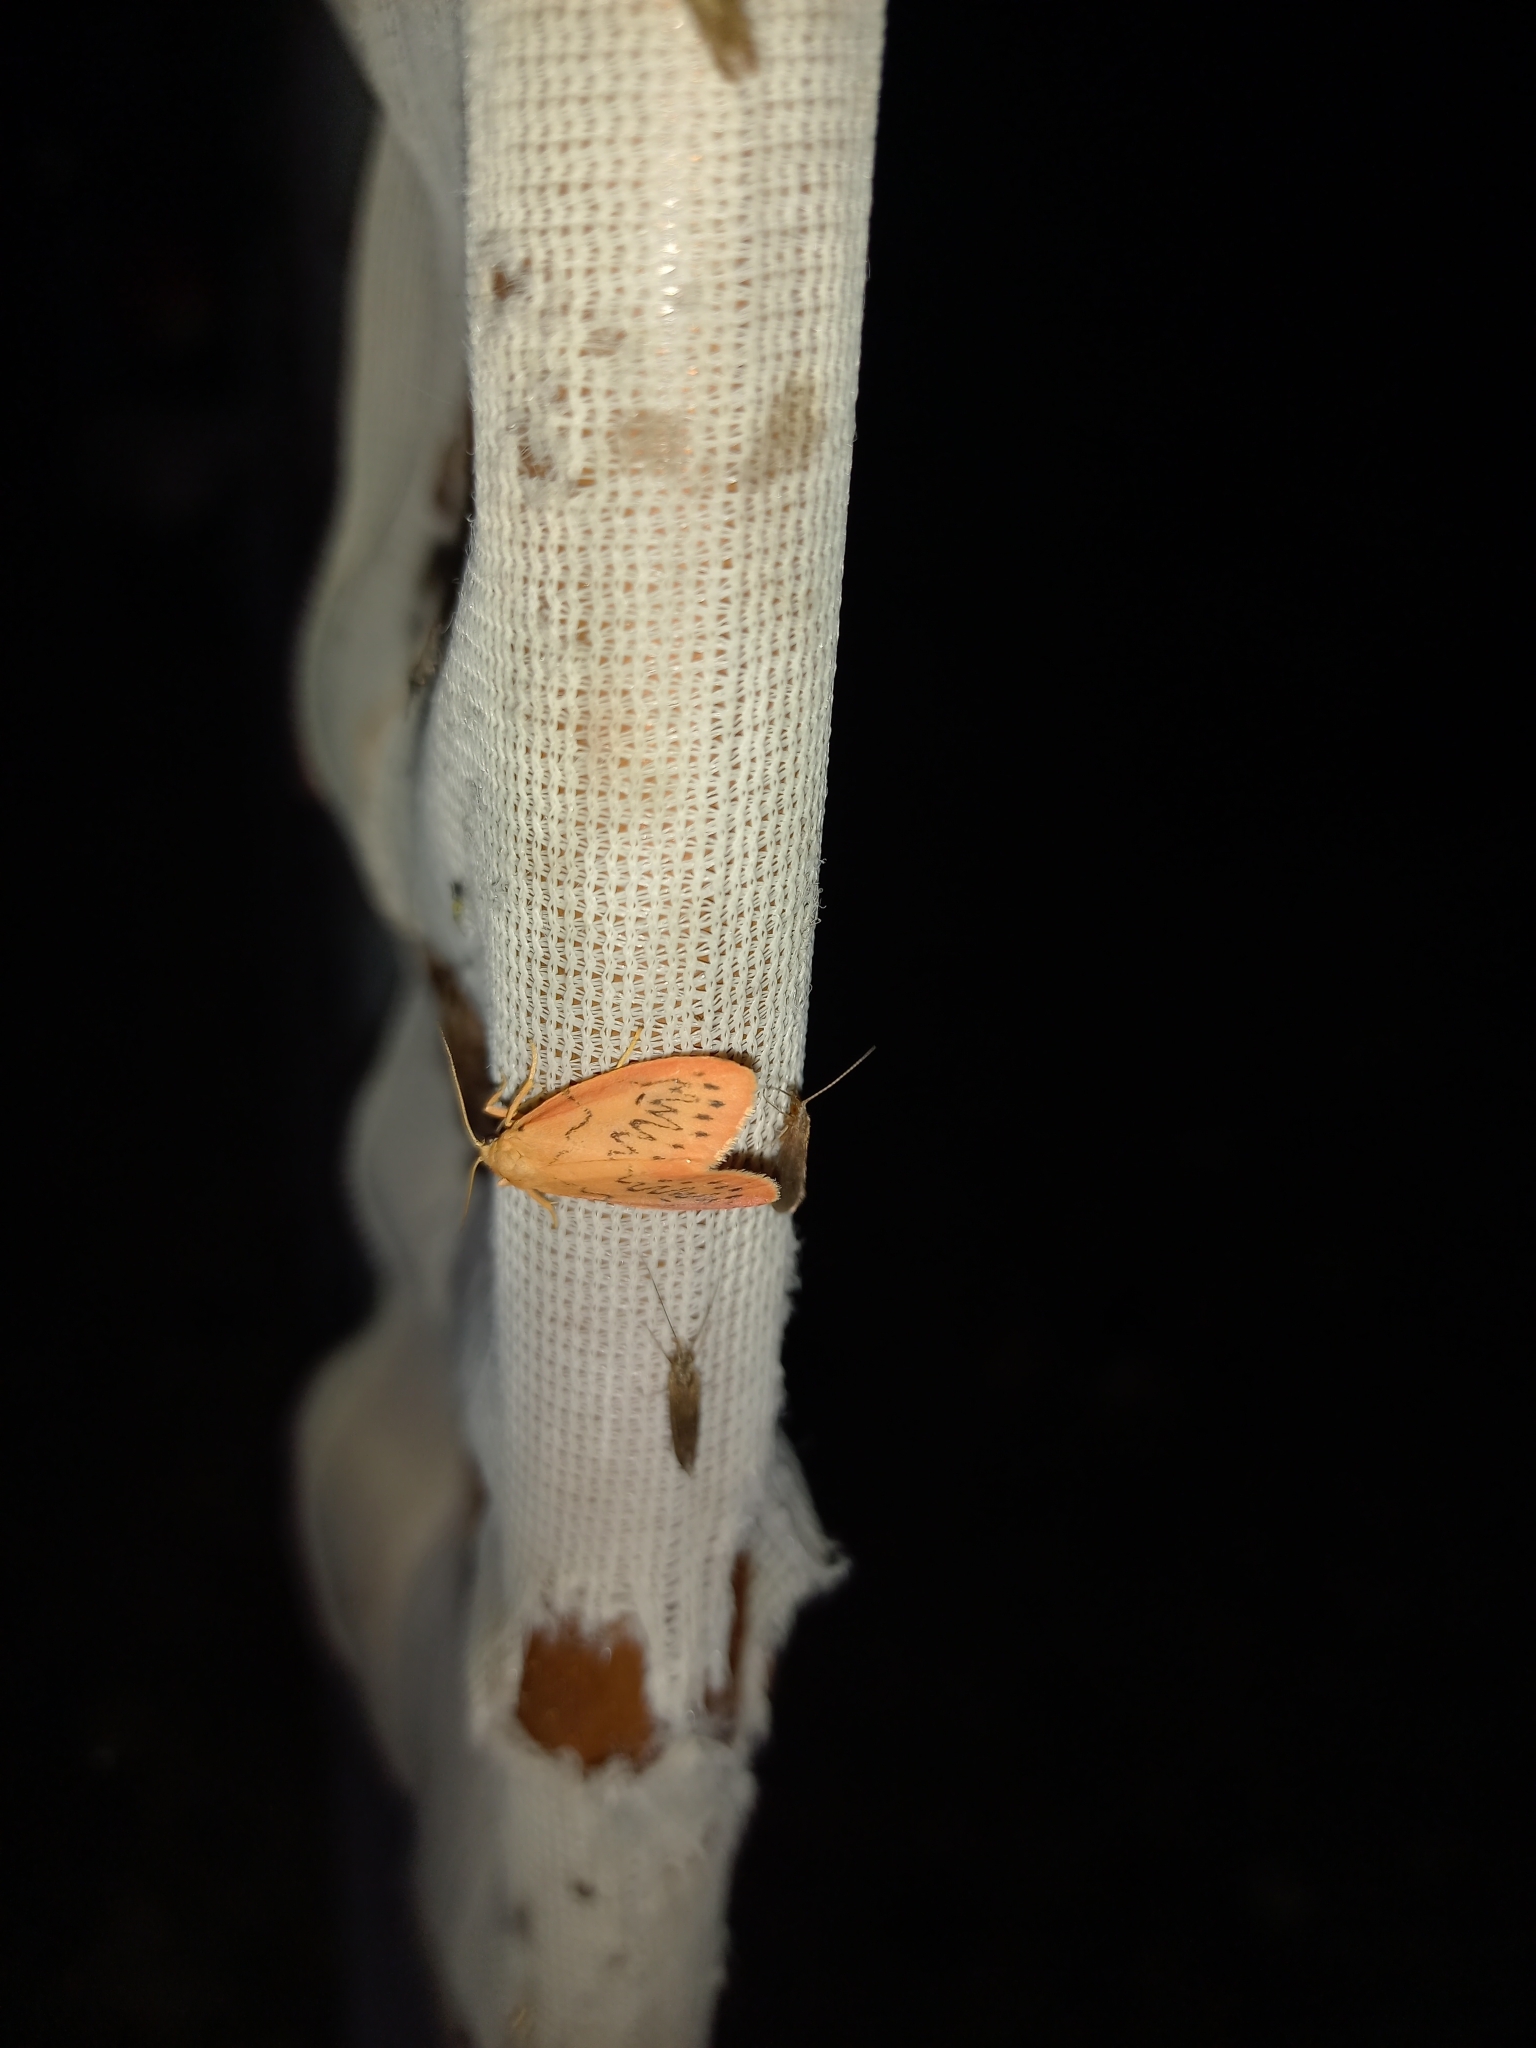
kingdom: Animalia
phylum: Arthropoda
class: Insecta
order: Lepidoptera
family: Erebidae
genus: Miltochrista
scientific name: Miltochrista miniata
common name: Rosy footman
